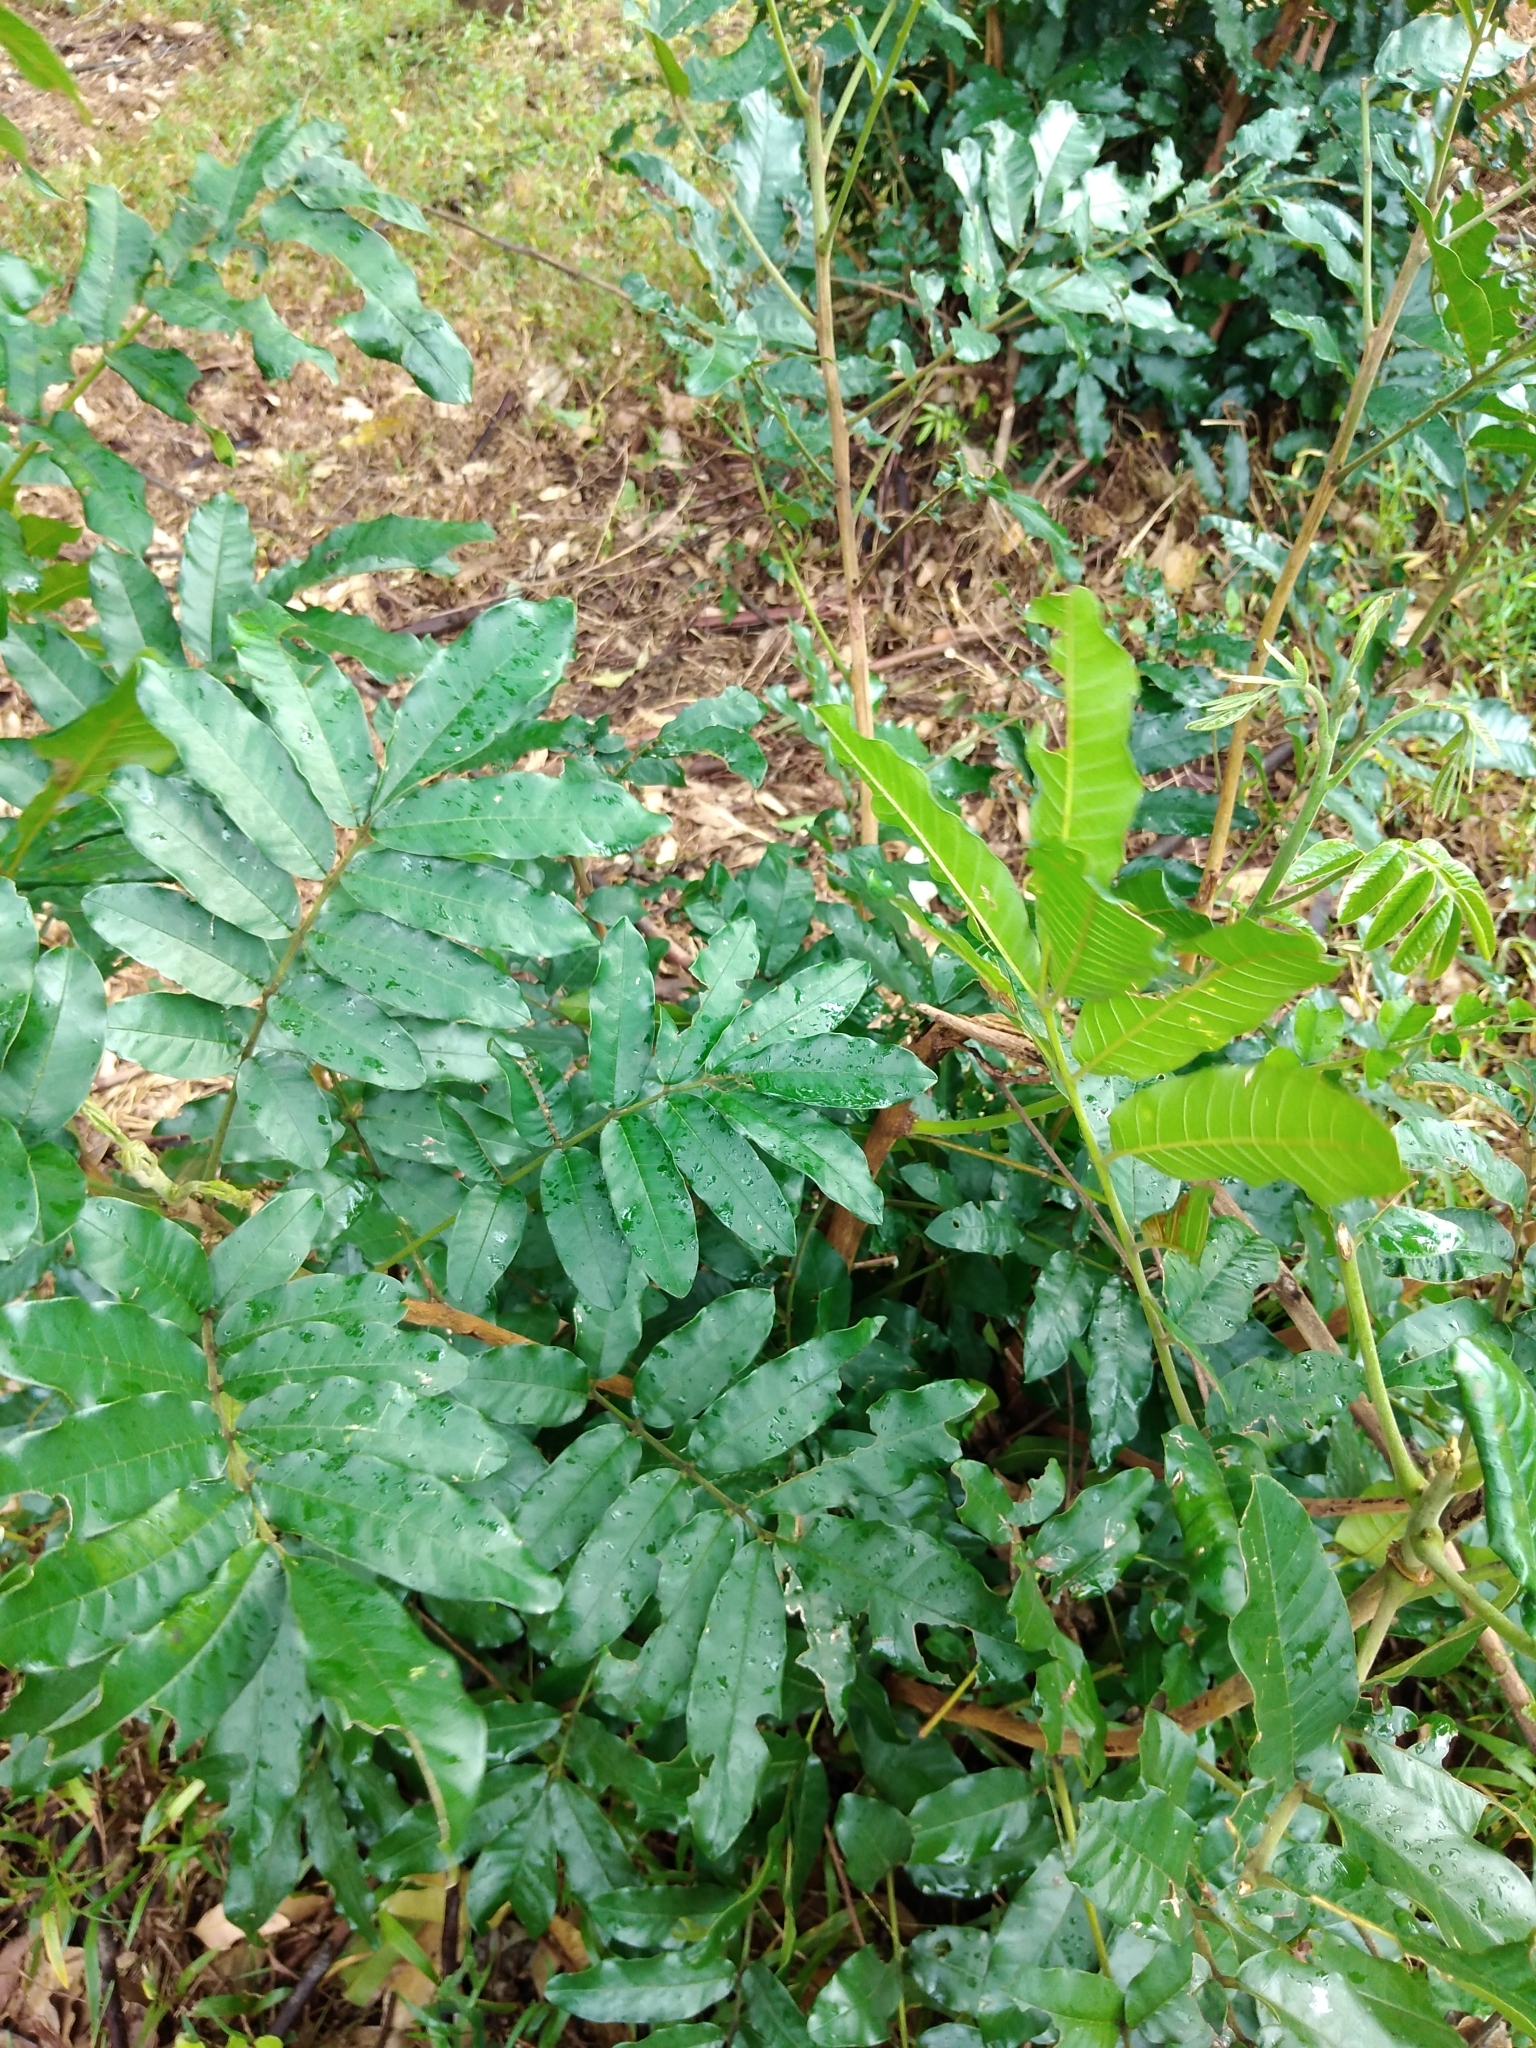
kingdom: Plantae
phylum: Tracheophyta
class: Magnoliopsida
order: Sapindales
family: Meliaceae
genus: Trichilia
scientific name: Trichilia emetica
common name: Christmas-bells
